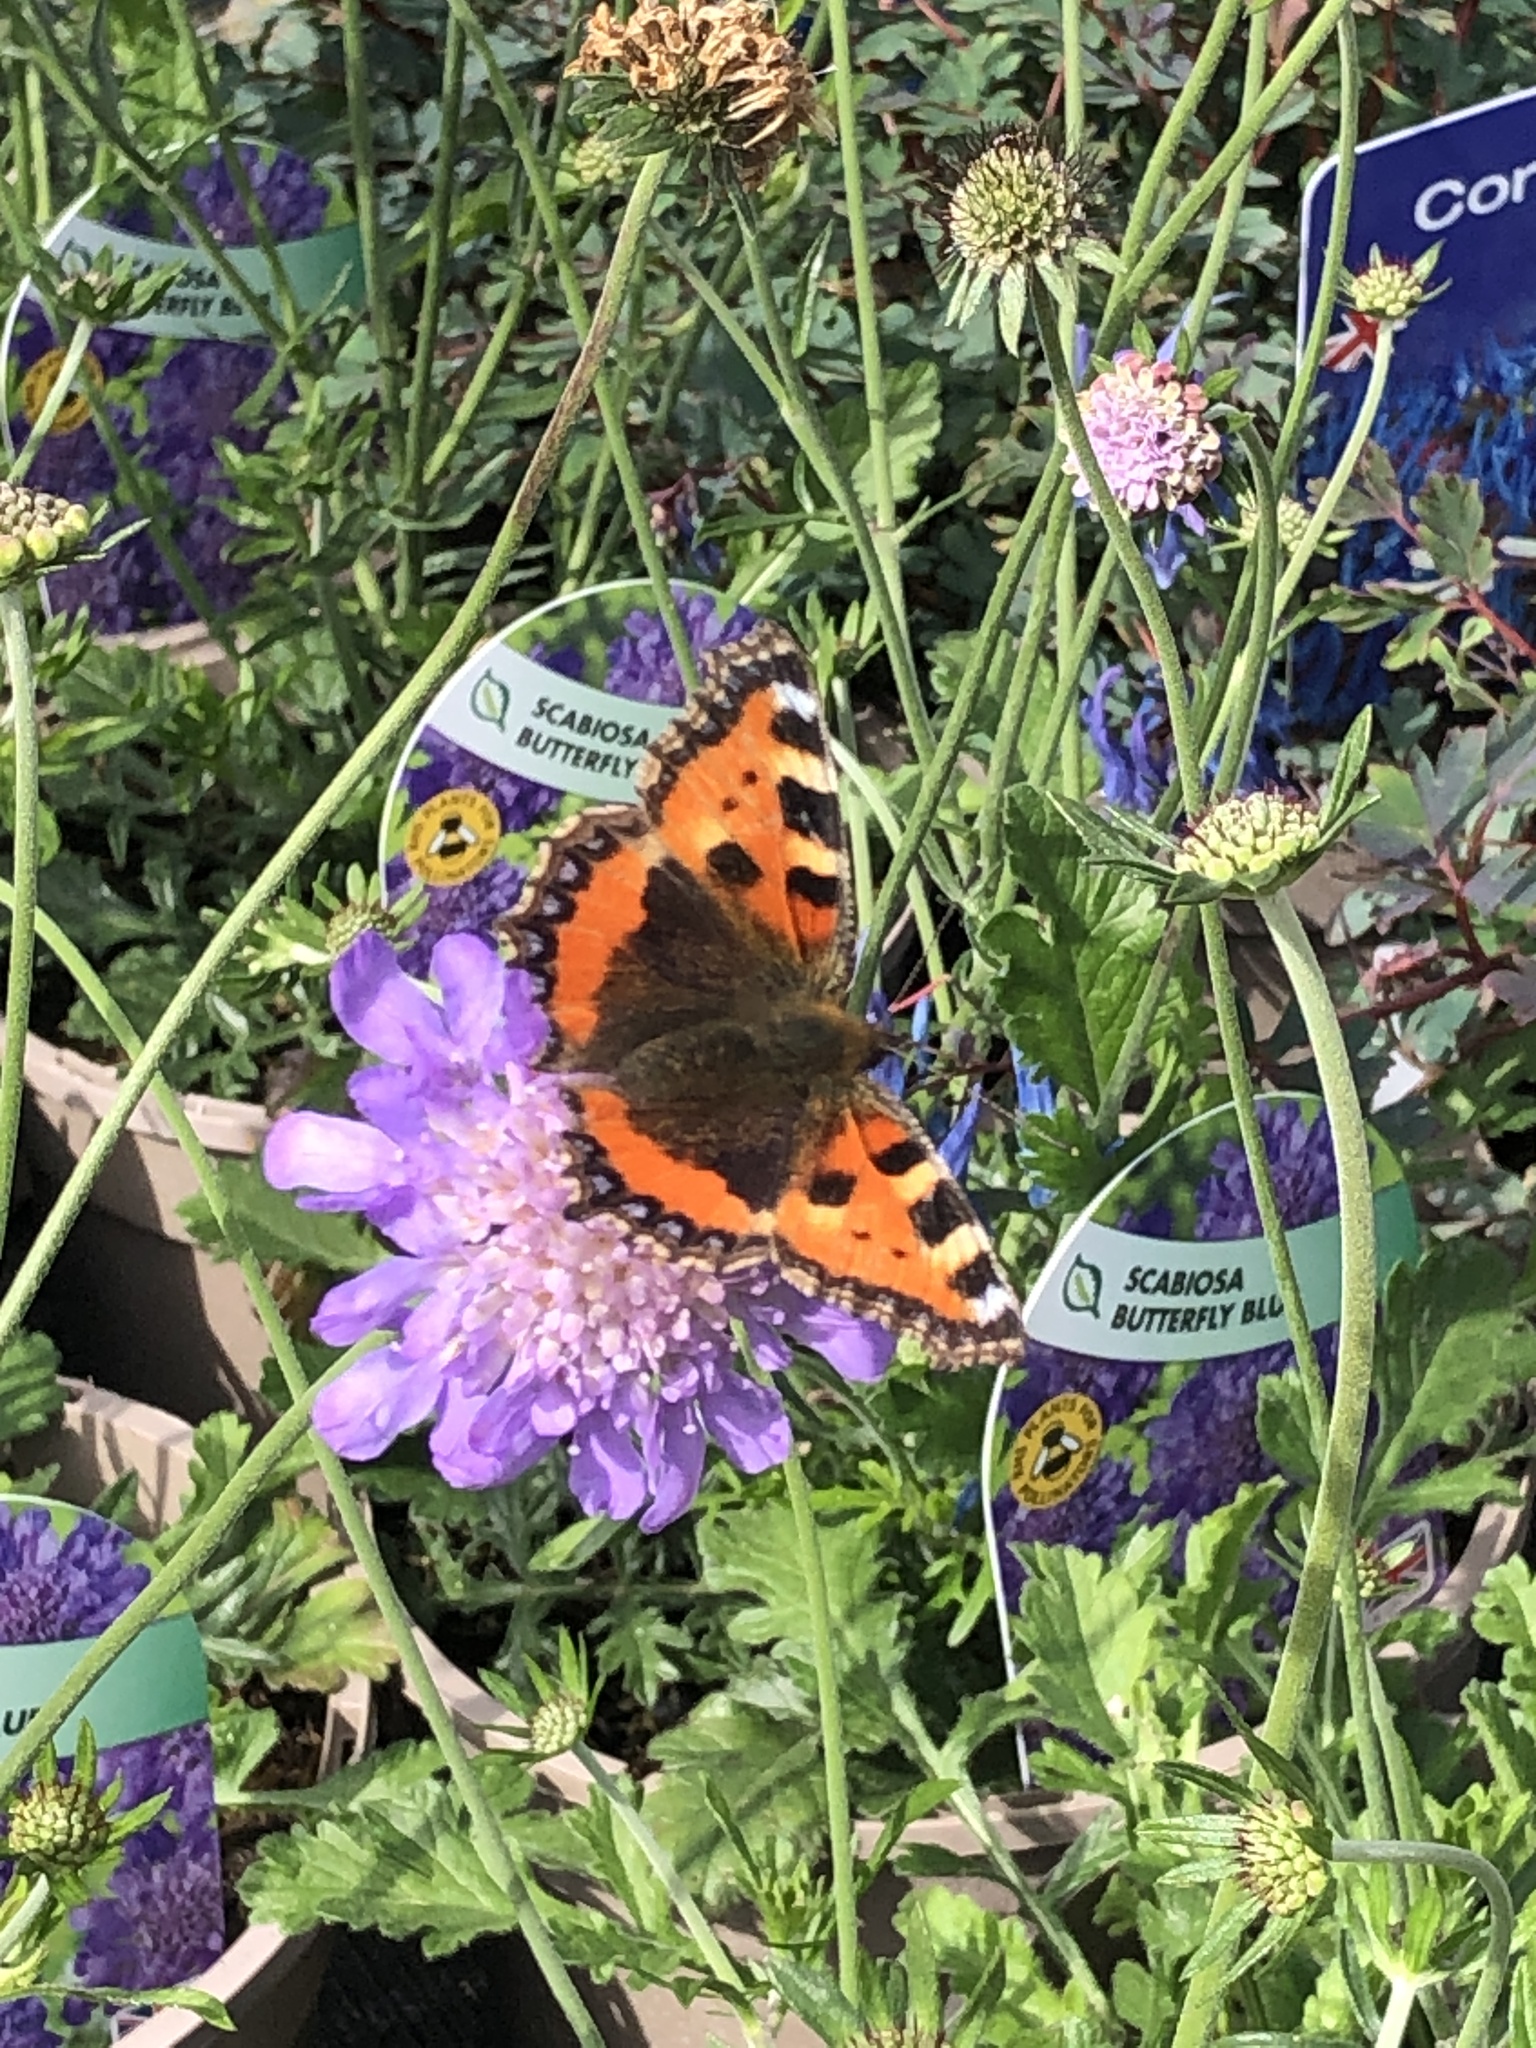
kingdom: Animalia
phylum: Arthropoda
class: Insecta
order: Lepidoptera
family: Nymphalidae
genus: Aglais
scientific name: Aglais urticae
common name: Small tortoiseshell
